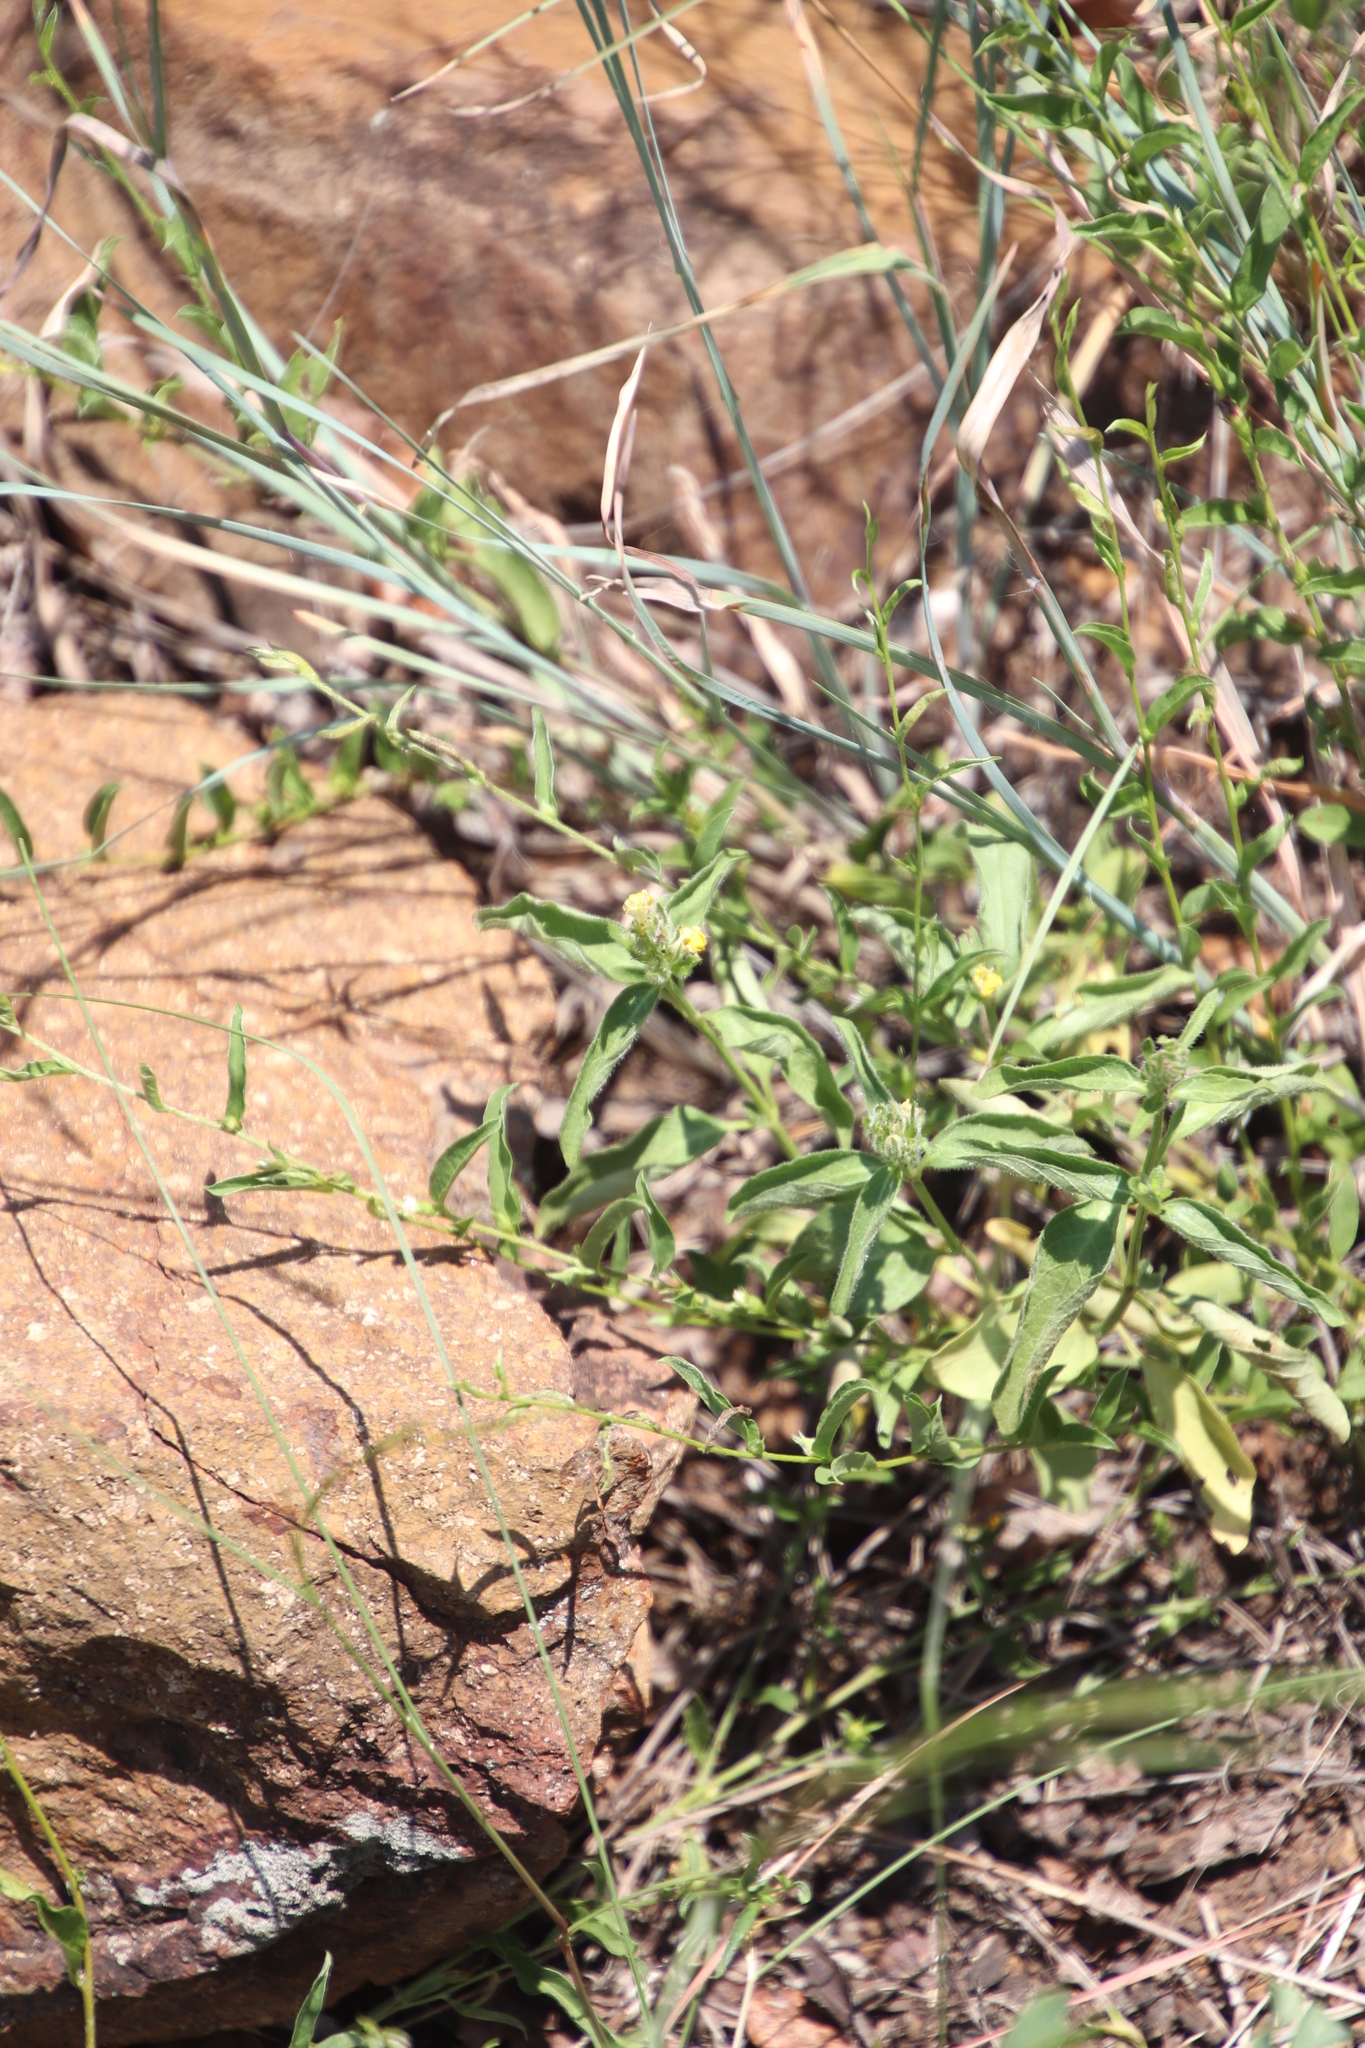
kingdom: Plantae
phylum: Tracheophyta
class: Magnoliopsida
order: Lamiales
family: Acanthaceae
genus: Justicia
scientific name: Justicia flava
